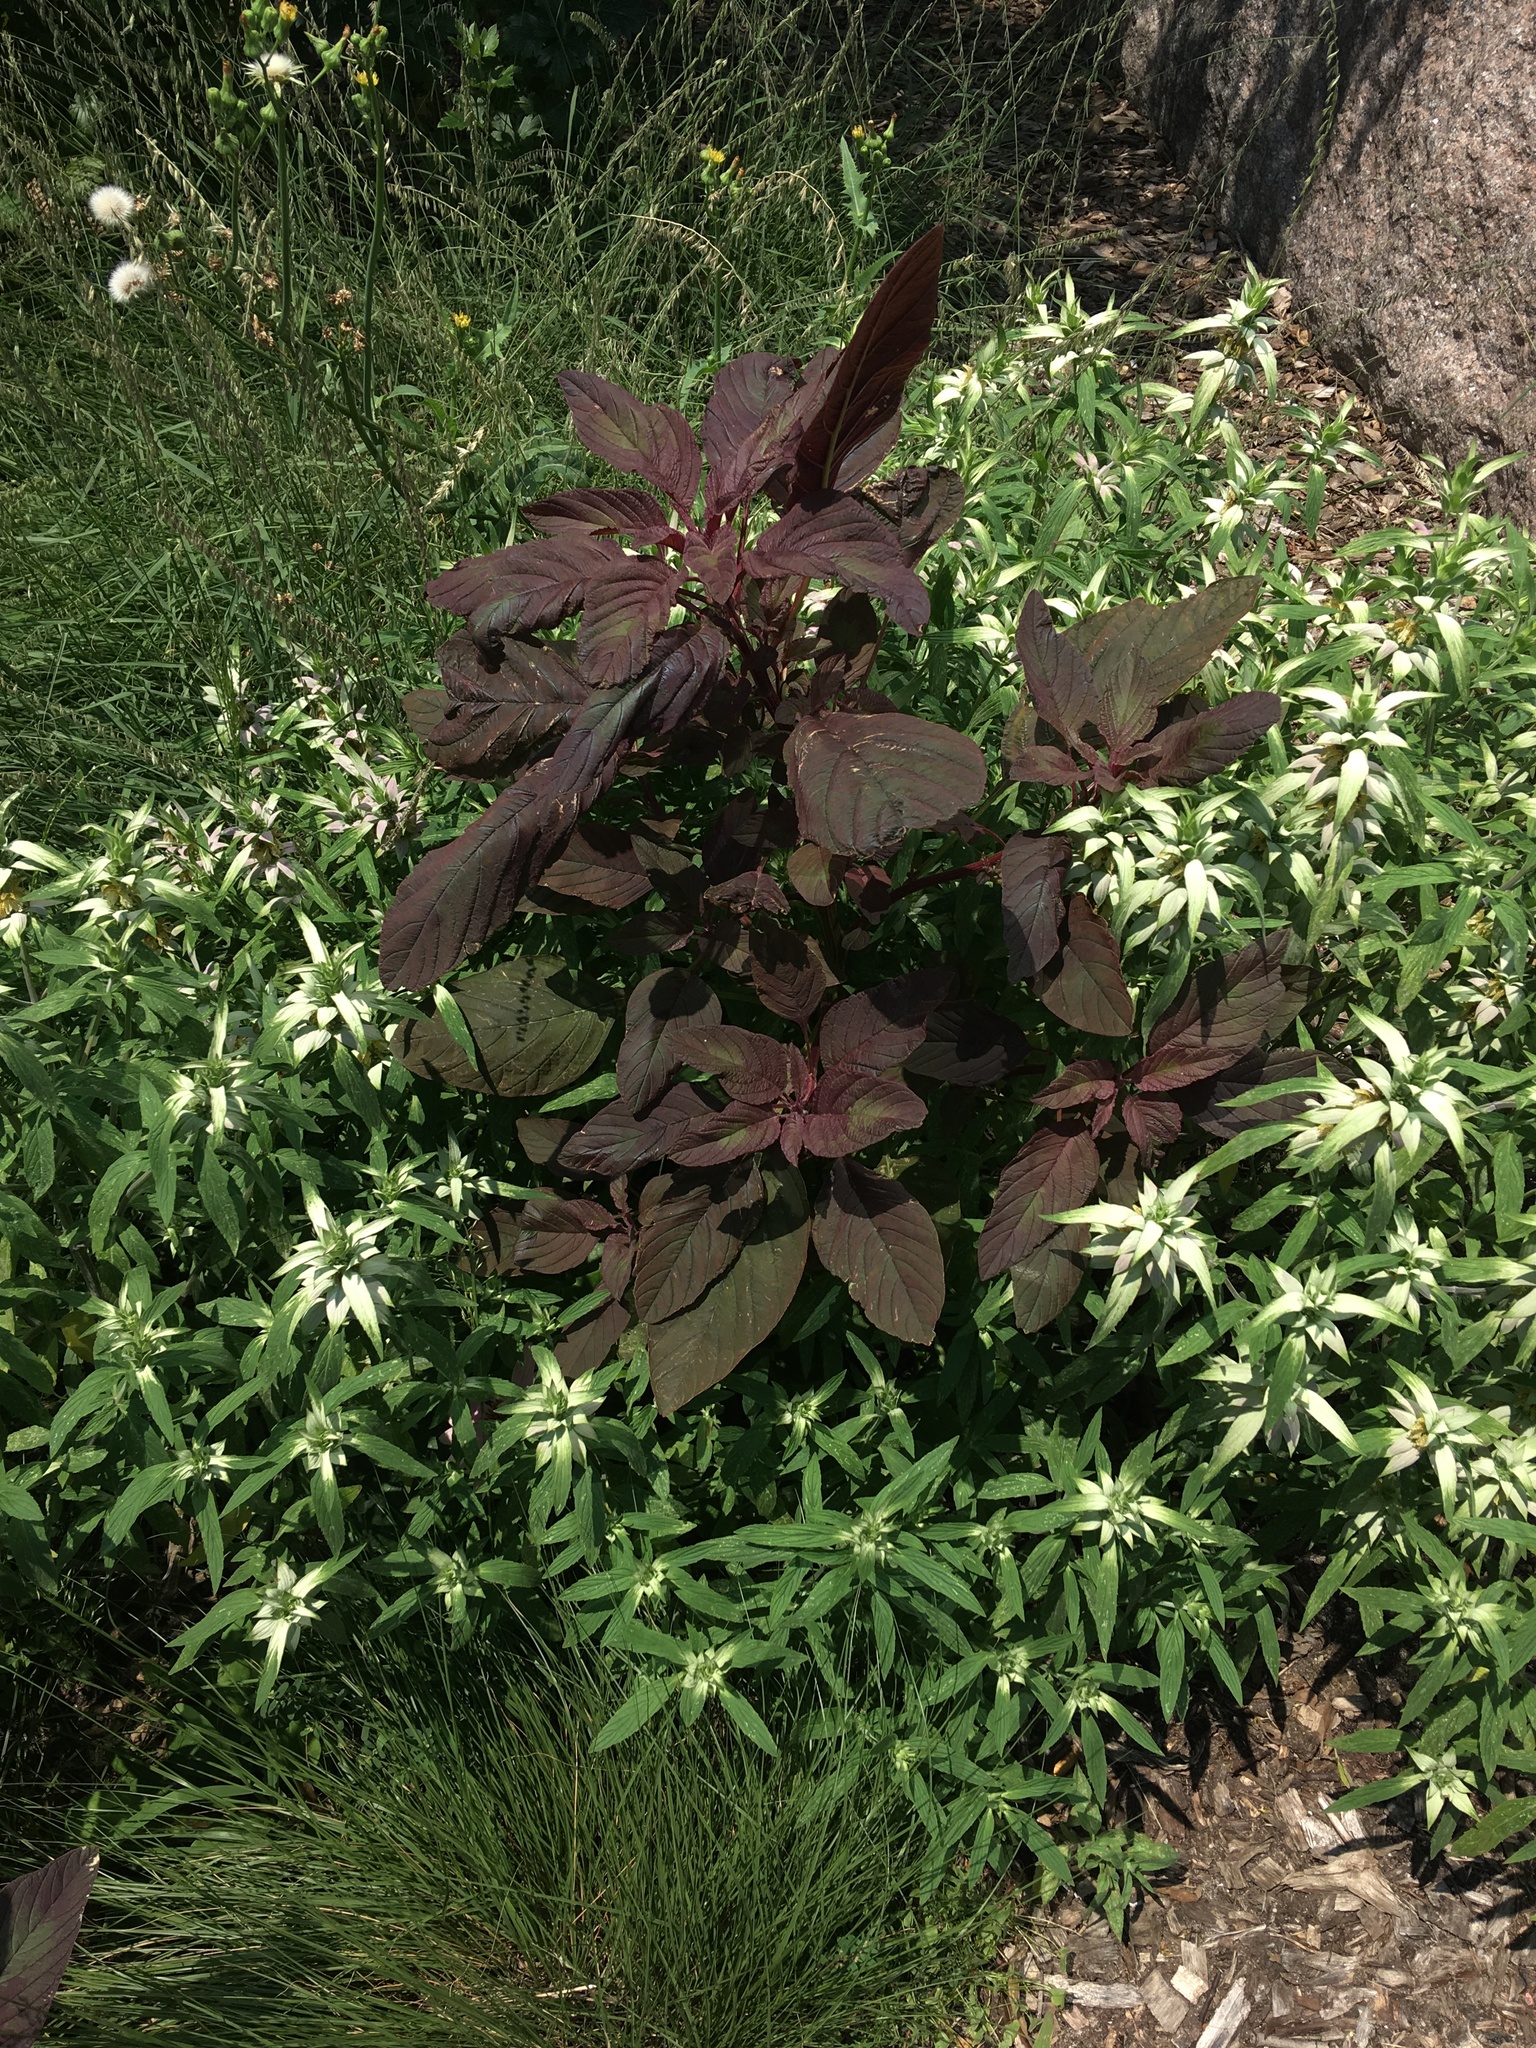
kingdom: Plantae
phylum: Tracheophyta
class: Magnoliopsida
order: Caryophyllales
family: Amaranthaceae
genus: Amaranthus
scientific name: Amaranthus cruentus
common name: Purple amaranth
